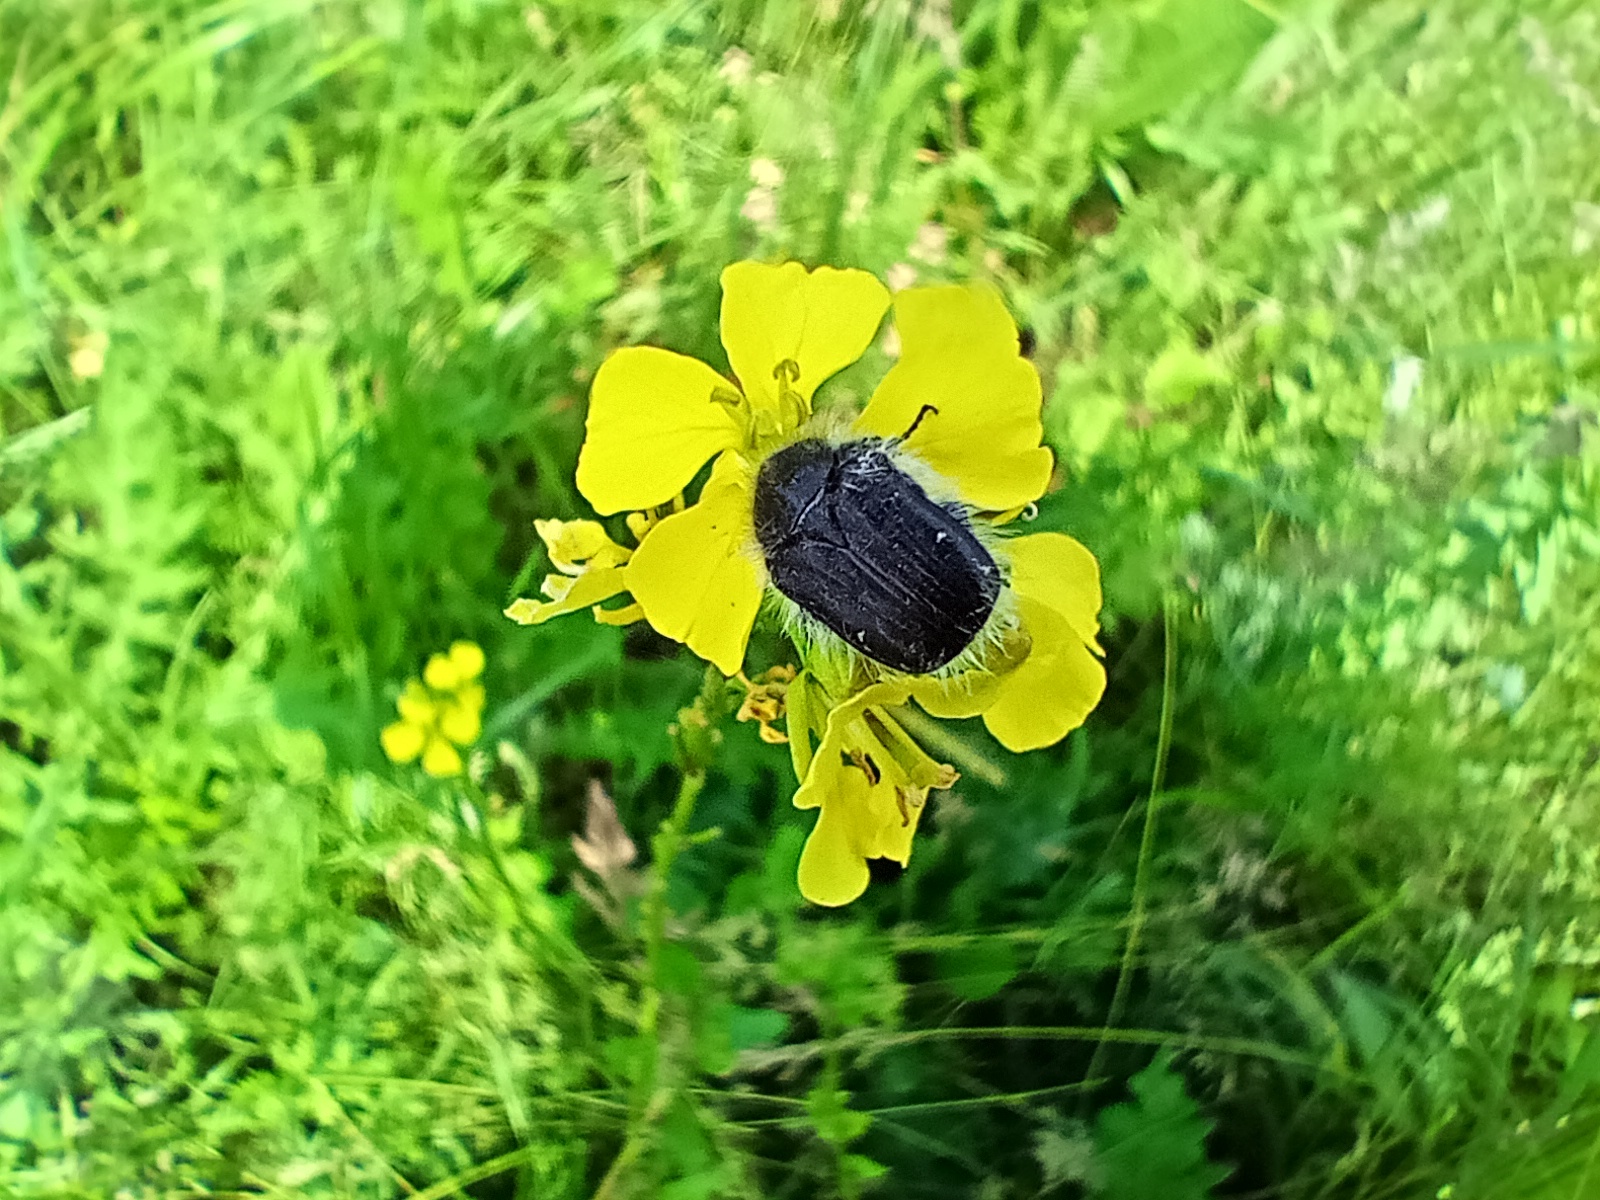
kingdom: Animalia
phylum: Arthropoda
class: Insecta
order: Coleoptera
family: Scarabaeidae
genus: Tropinota
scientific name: Tropinota hirta
